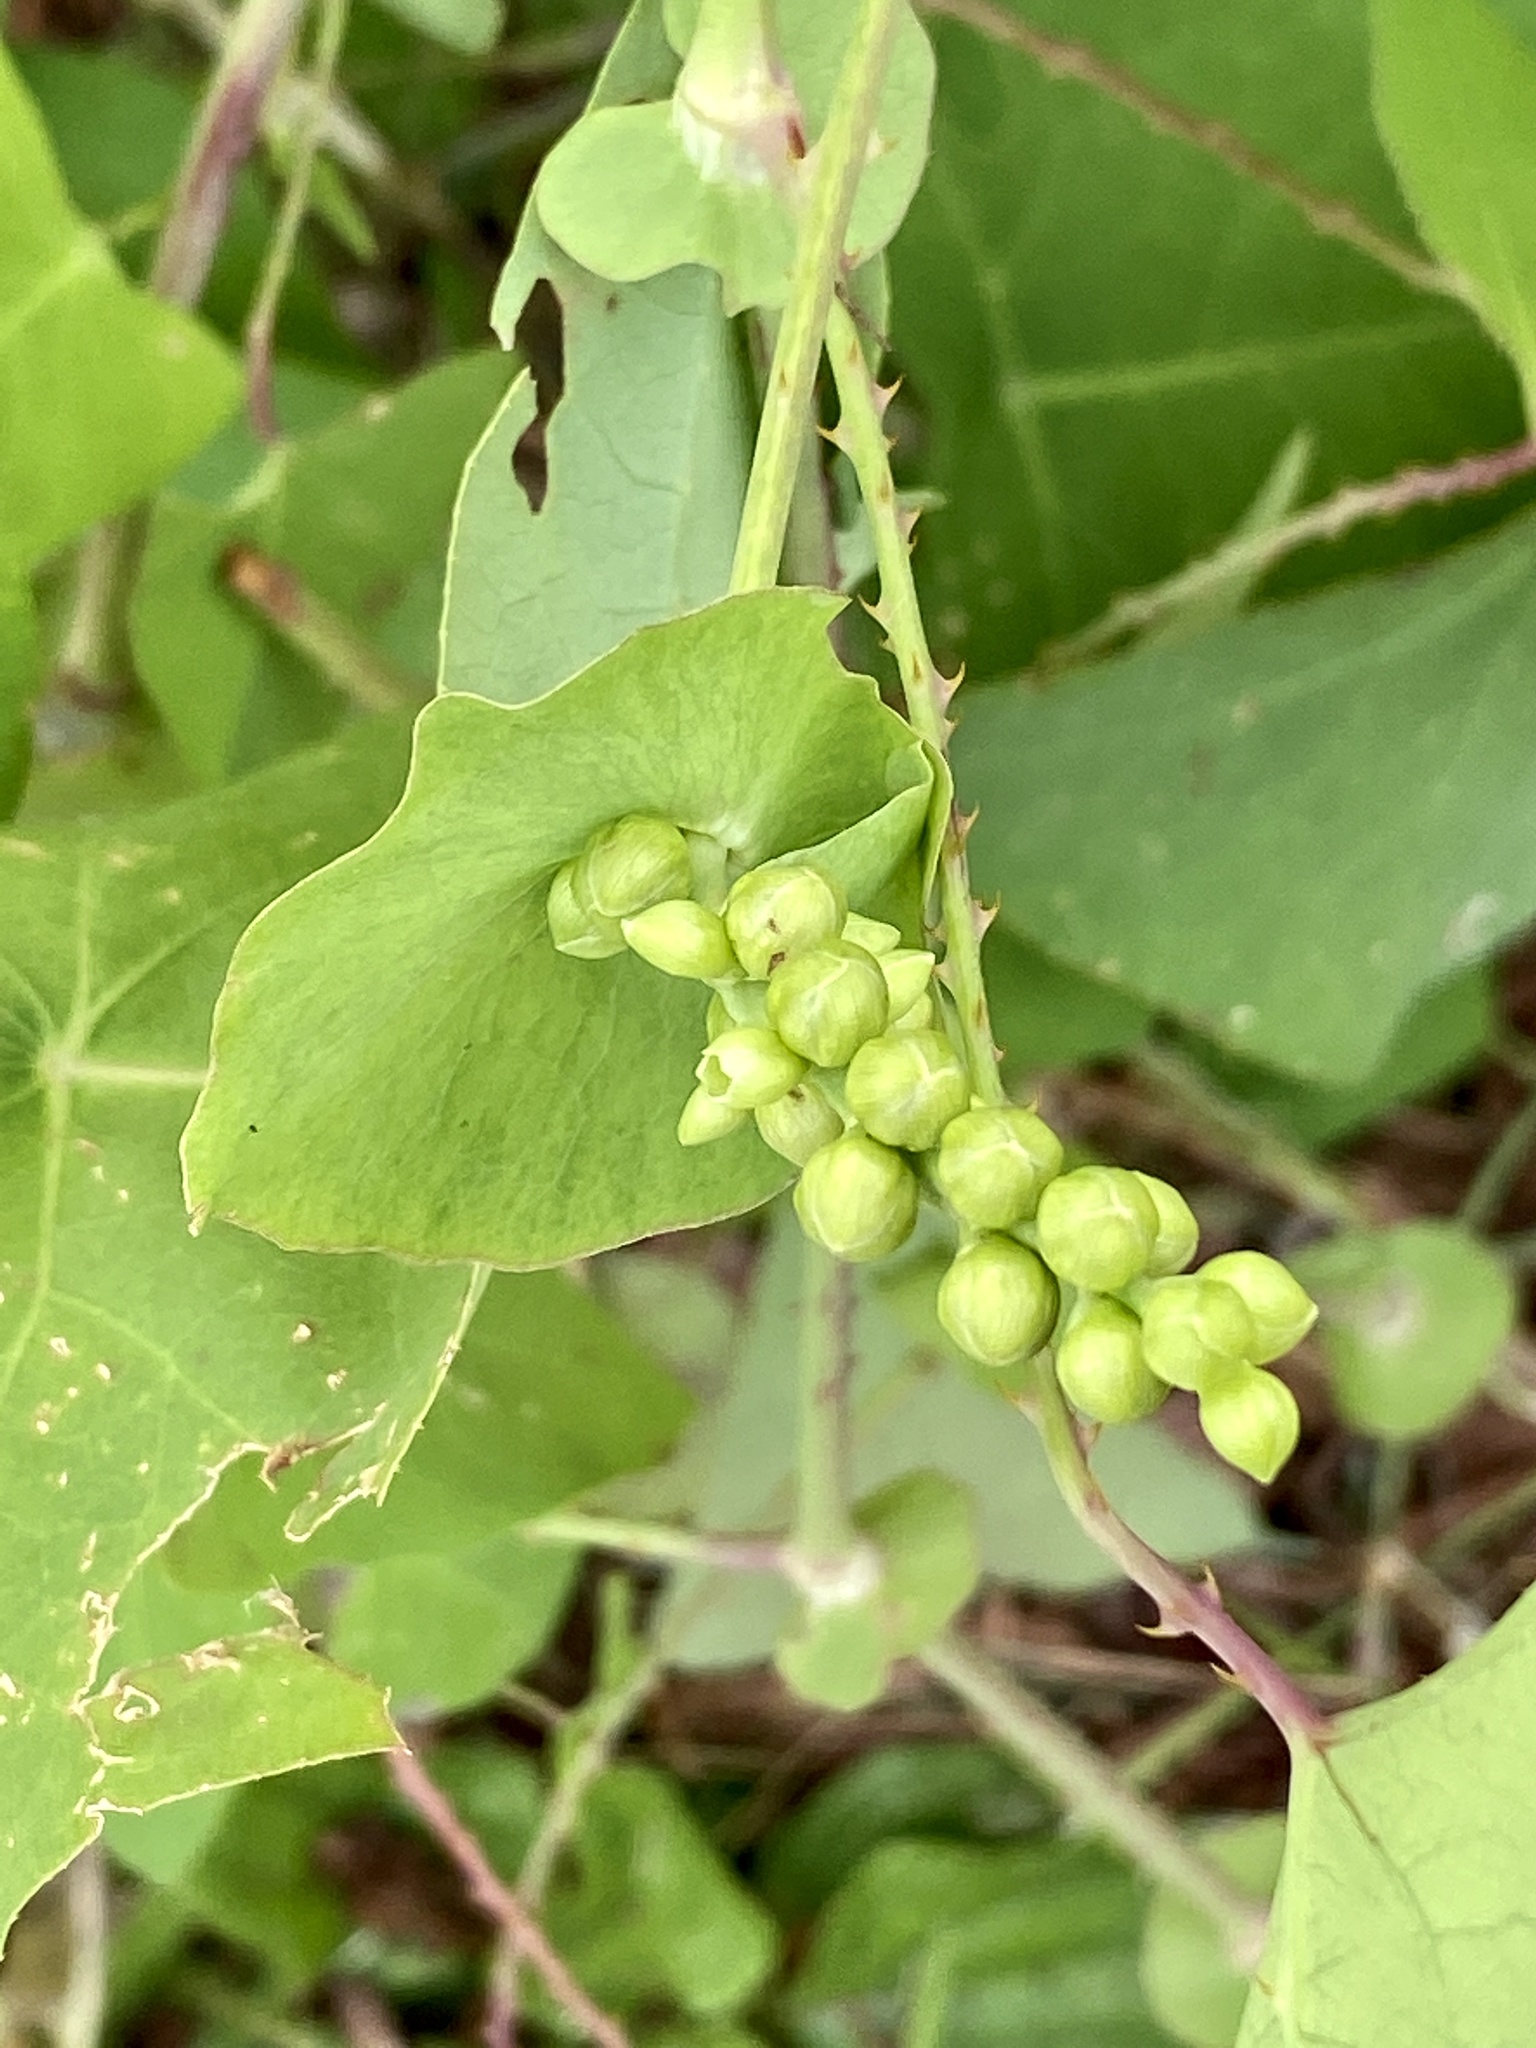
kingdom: Plantae
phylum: Tracheophyta
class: Magnoliopsida
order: Caryophyllales
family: Polygonaceae
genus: Persicaria
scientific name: Persicaria perfoliata
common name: Asiatic tearthumb
